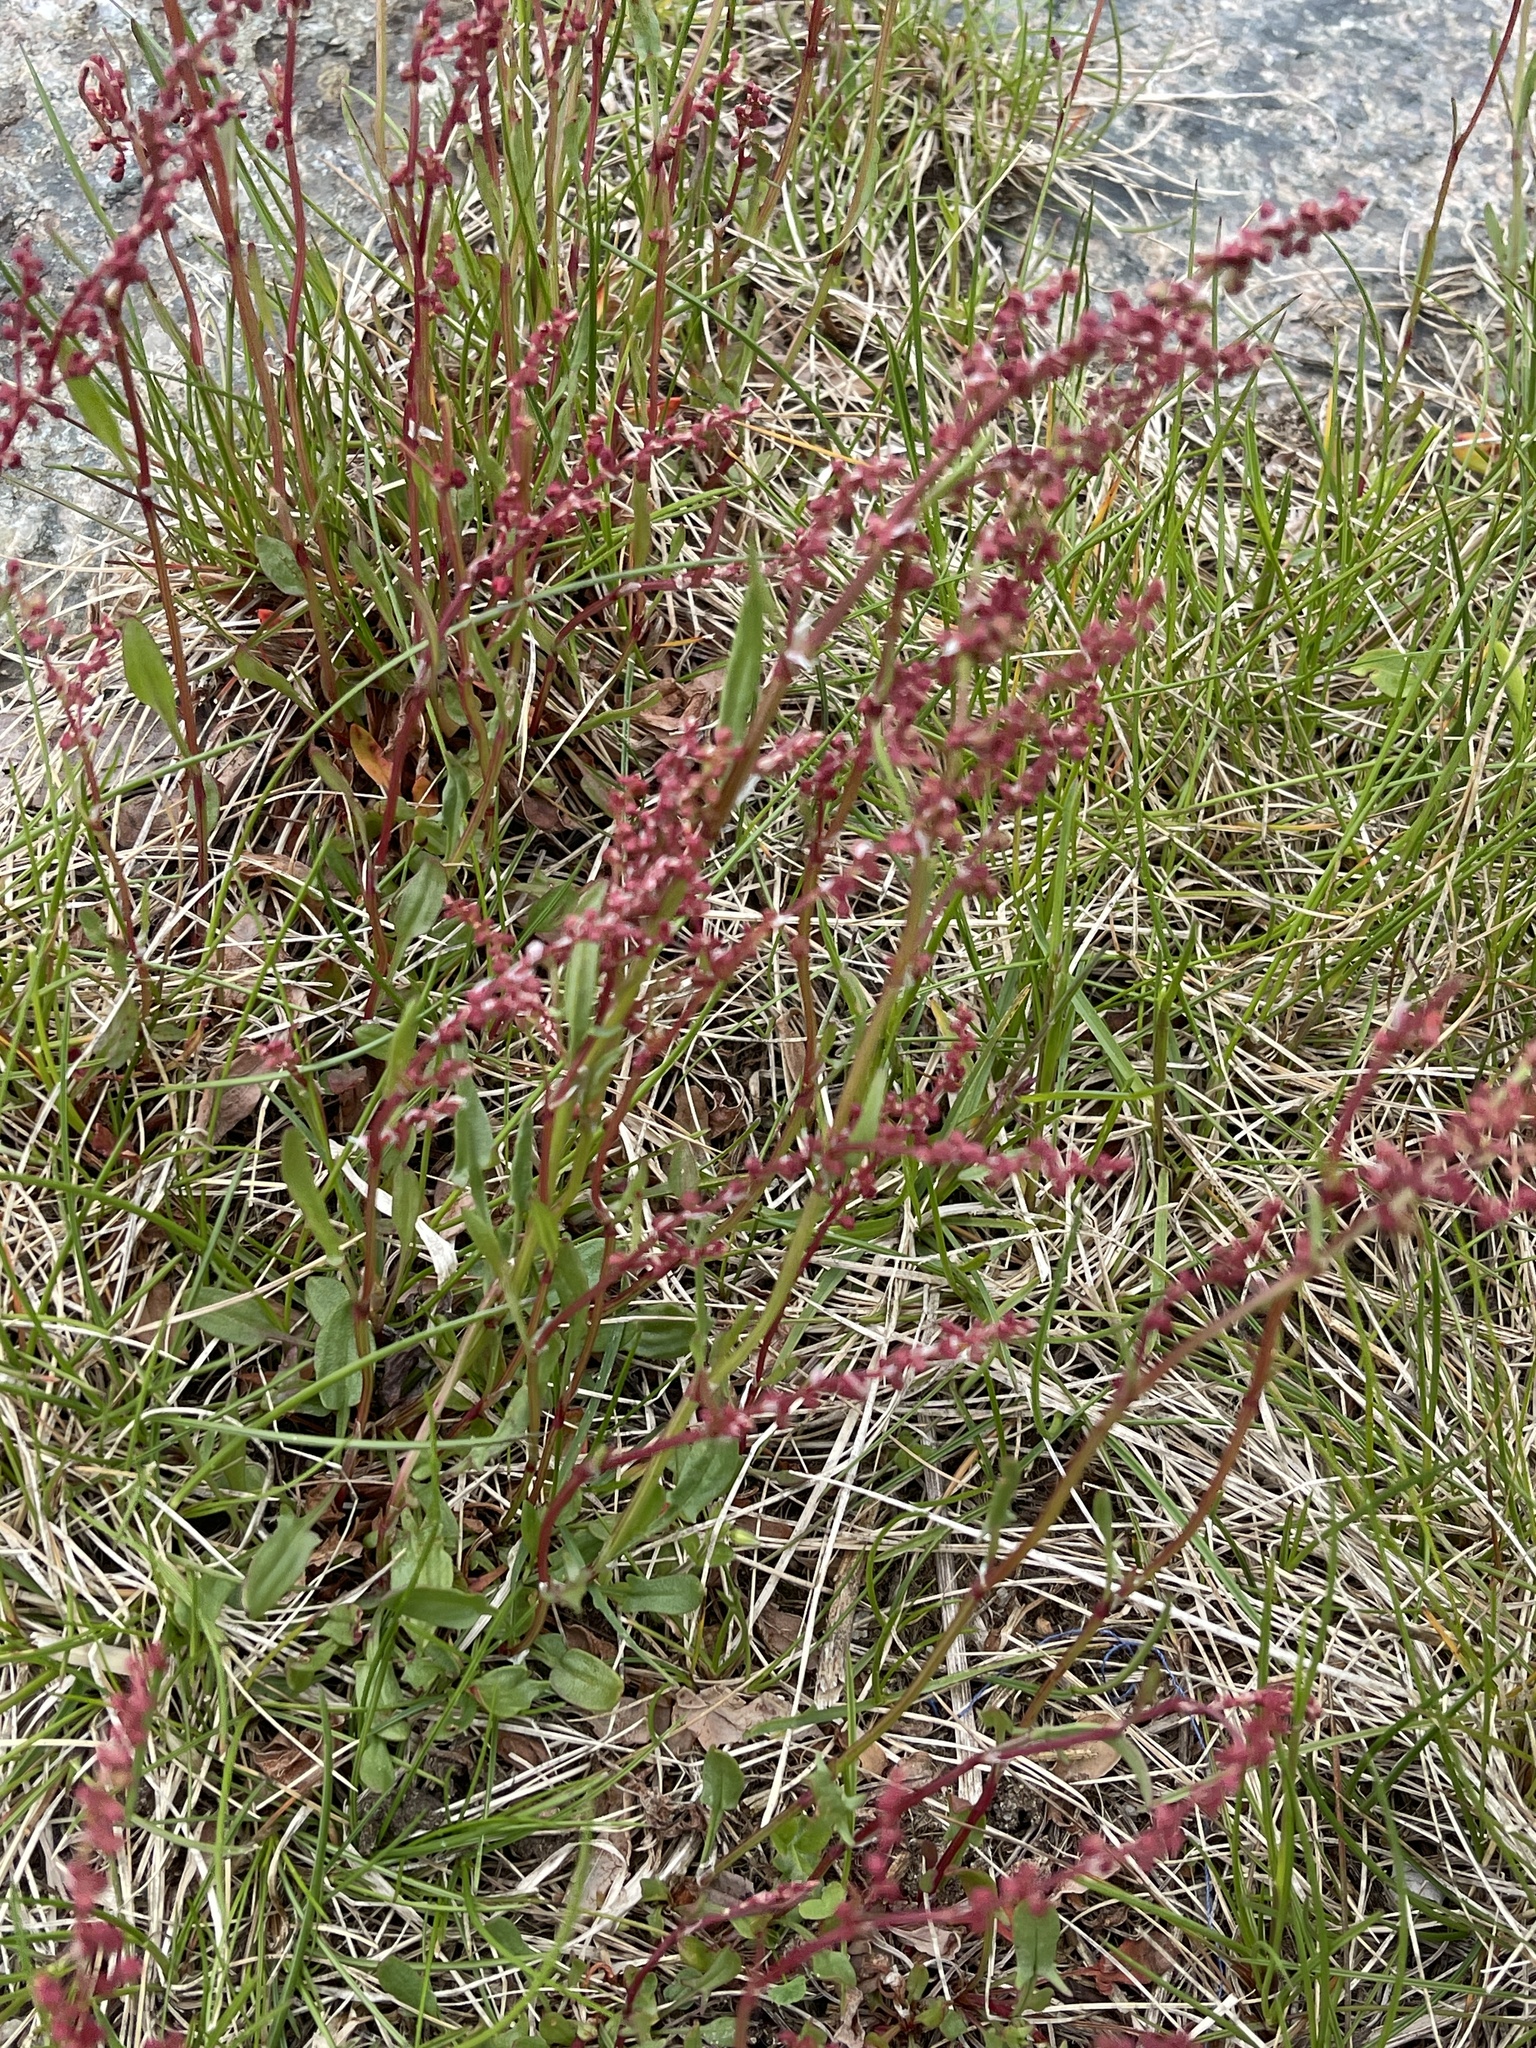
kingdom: Plantae
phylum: Tracheophyta
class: Magnoliopsida
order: Caryophyllales
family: Polygonaceae
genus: Rumex
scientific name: Rumex acetosella
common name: Common sheep sorrel
